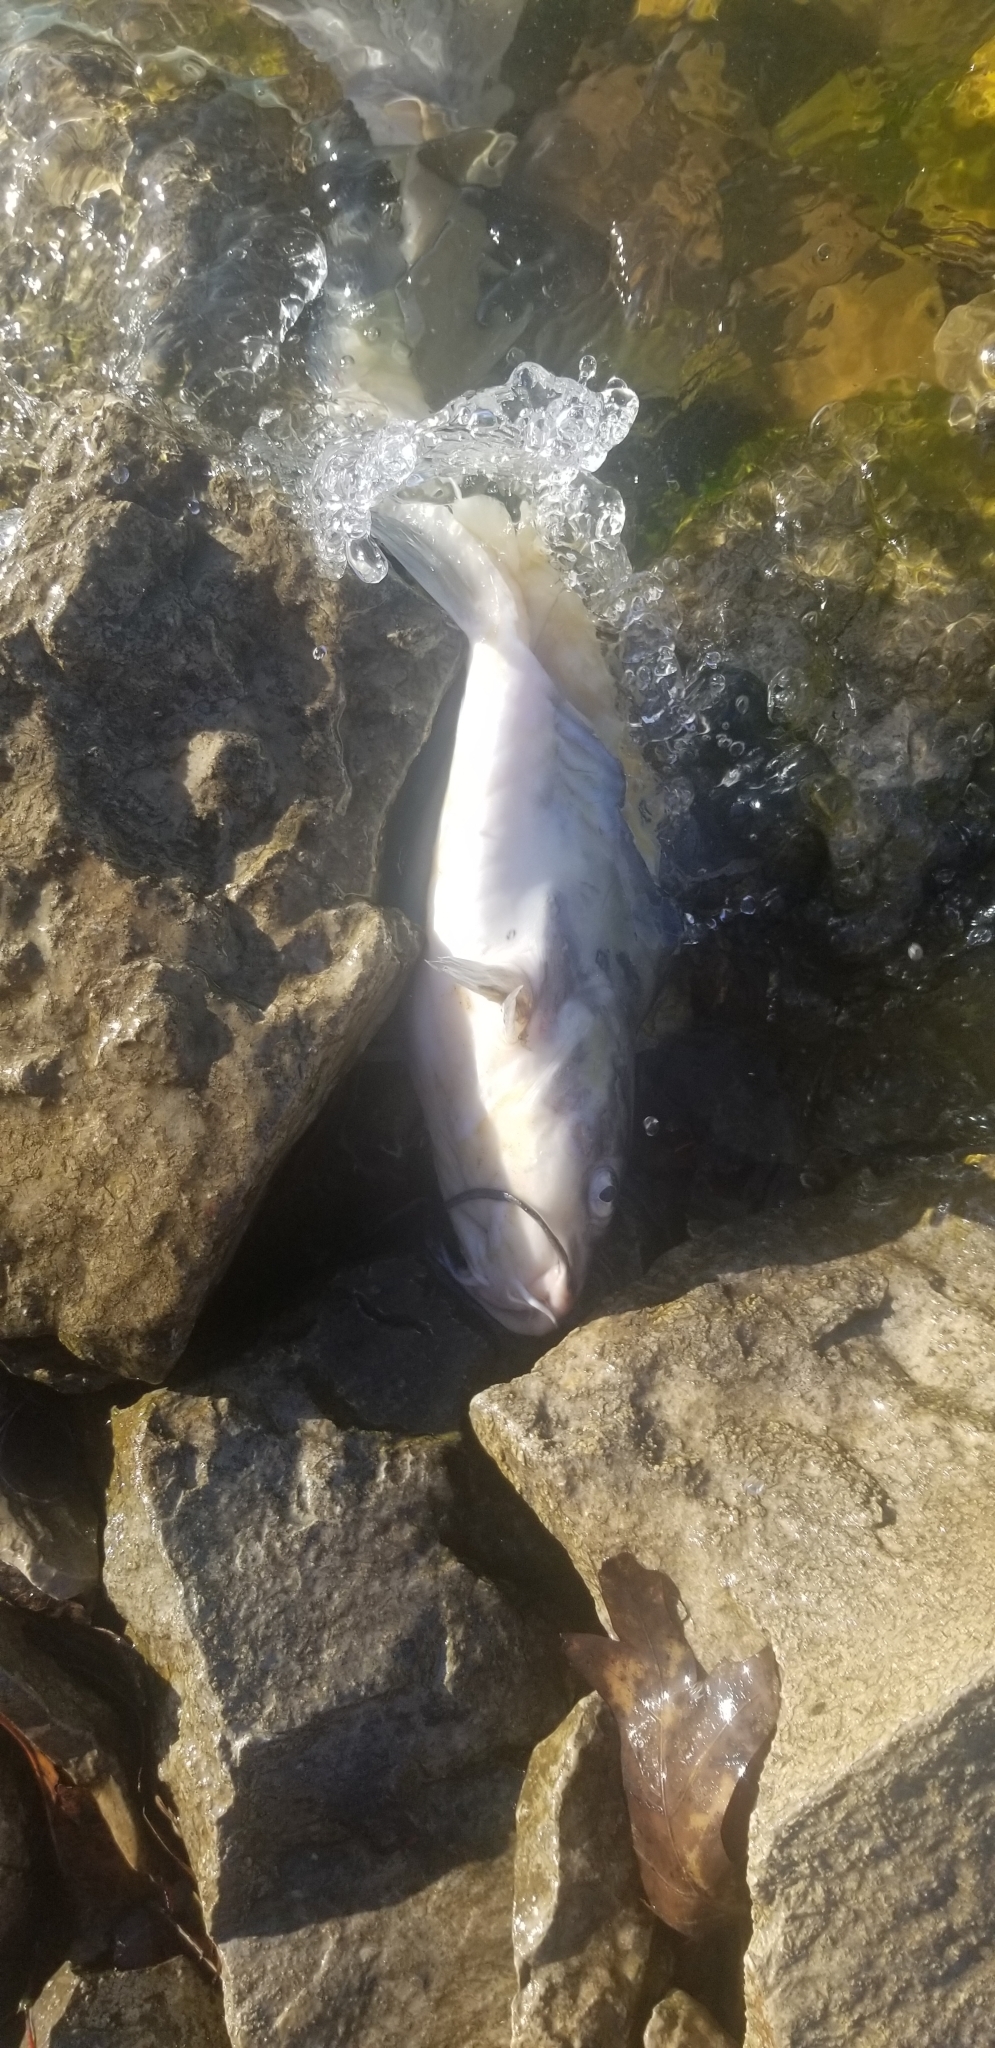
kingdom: Animalia
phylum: Chordata
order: Siluriformes
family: Ictaluridae
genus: Ictalurus
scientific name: Ictalurus punctatus
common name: Channel catfish
